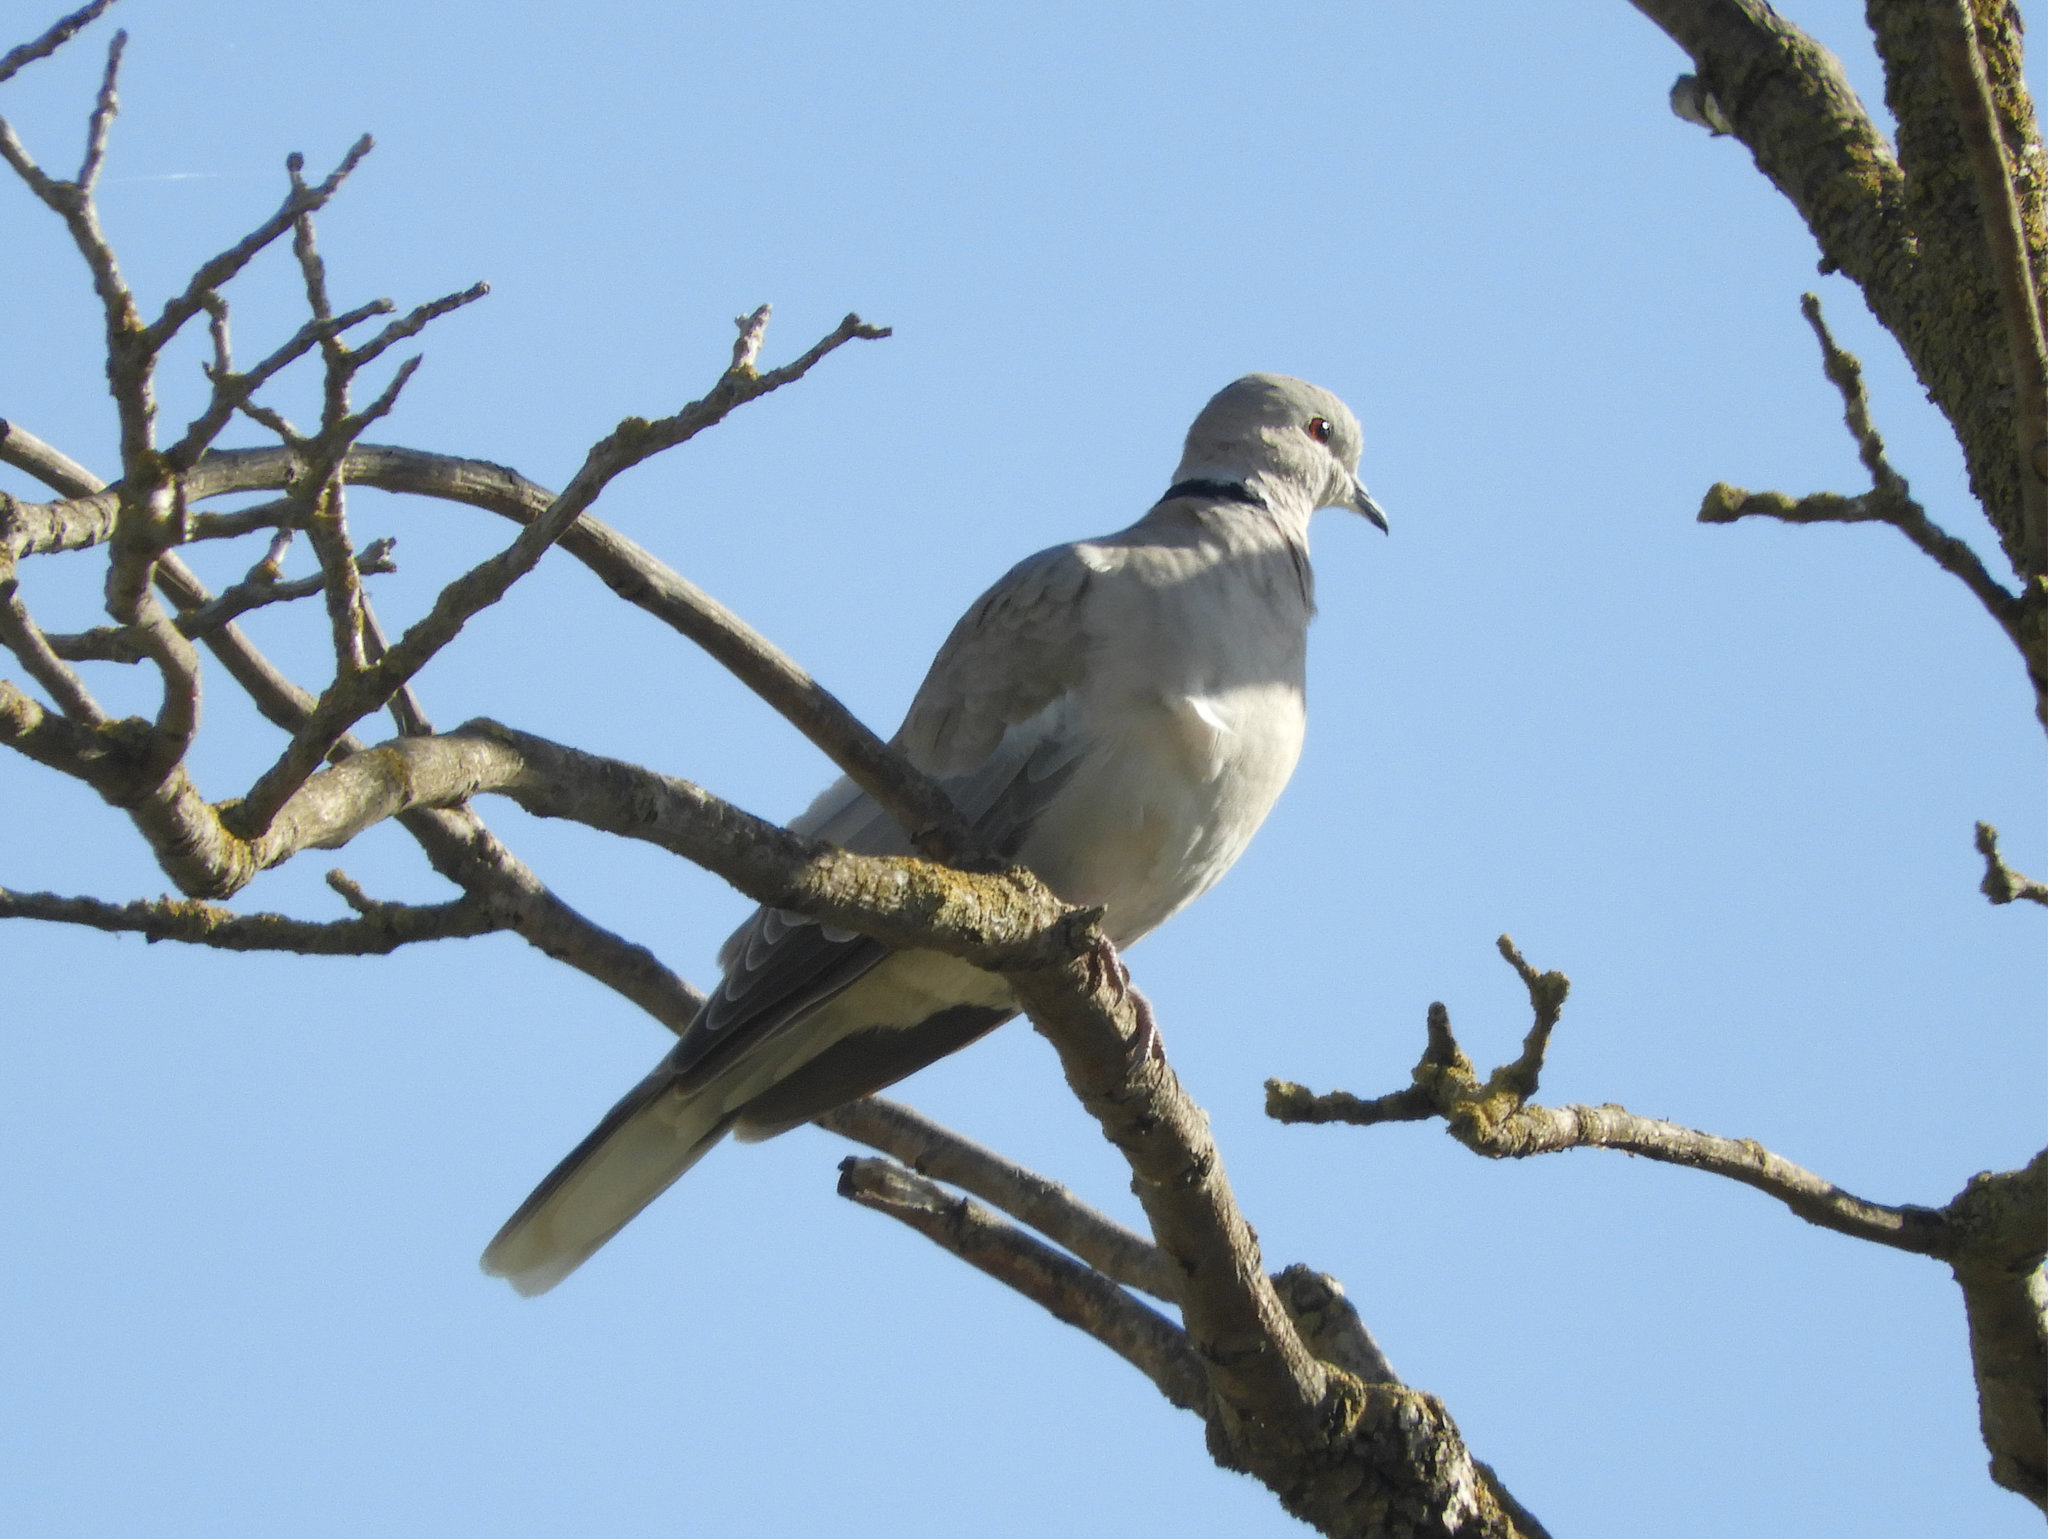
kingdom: Animalia
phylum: Chordata
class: Aves
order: Columbiformes
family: Columbidae
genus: Streptopelia
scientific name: Streptopelia decaocto
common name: Eurasian collared dove
